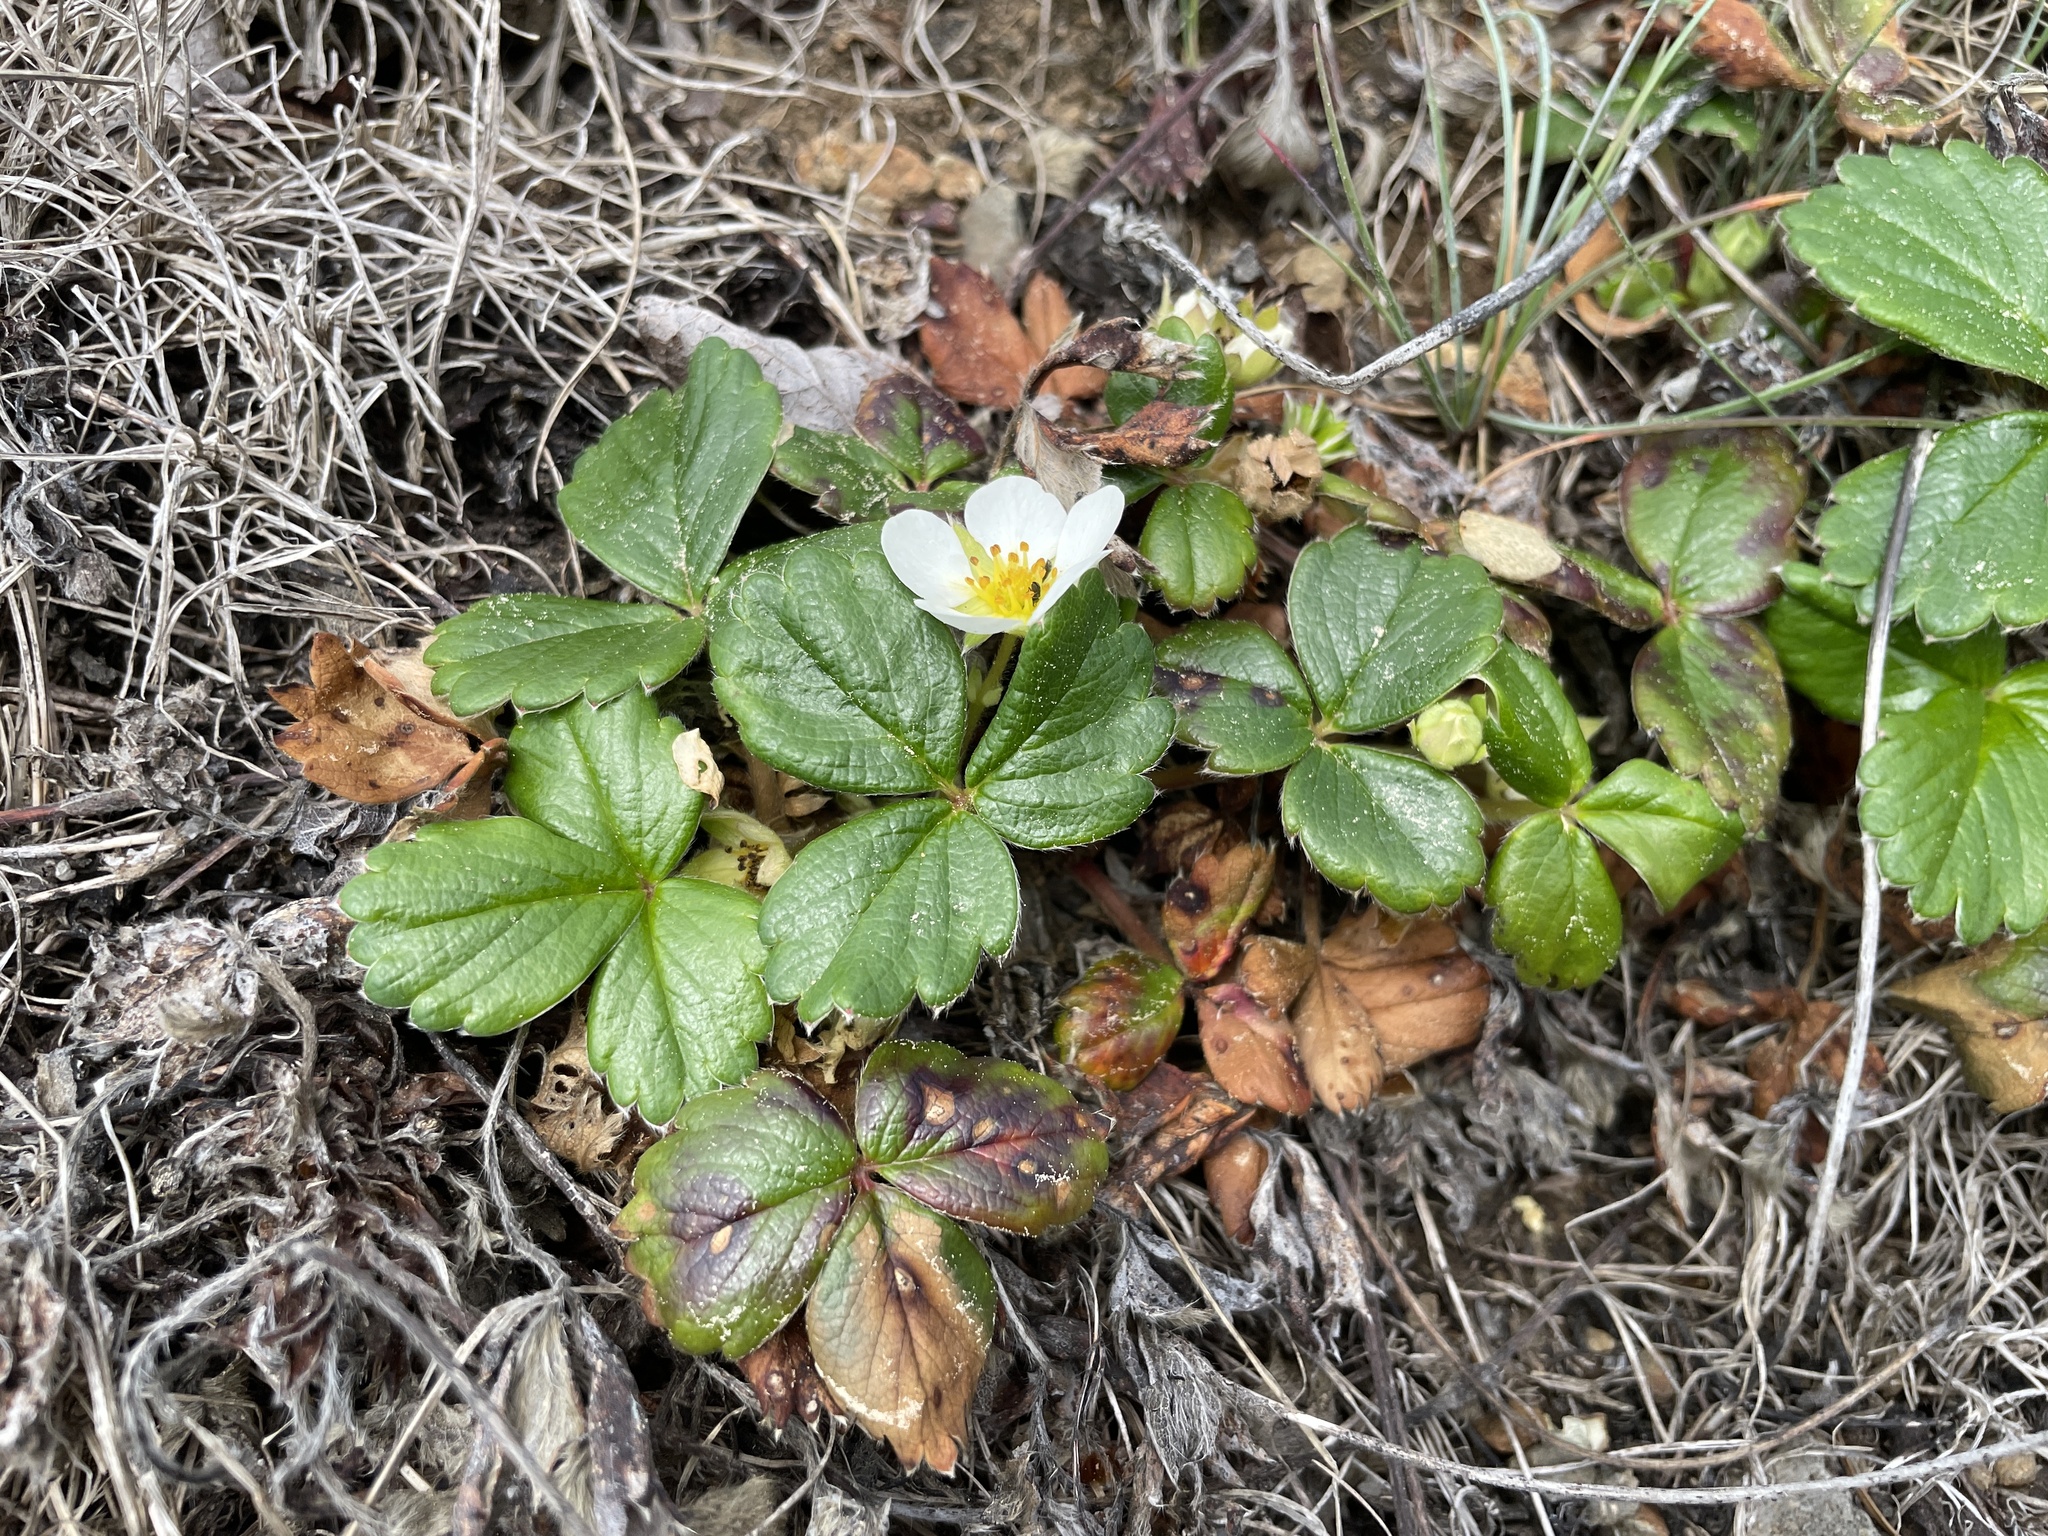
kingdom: Plantae
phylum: Tracheophyta
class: Magnoliopsida
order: Rosales
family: Rosaceae
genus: Fragaria
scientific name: Fragaria chiloensis
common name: Beach strawberry
